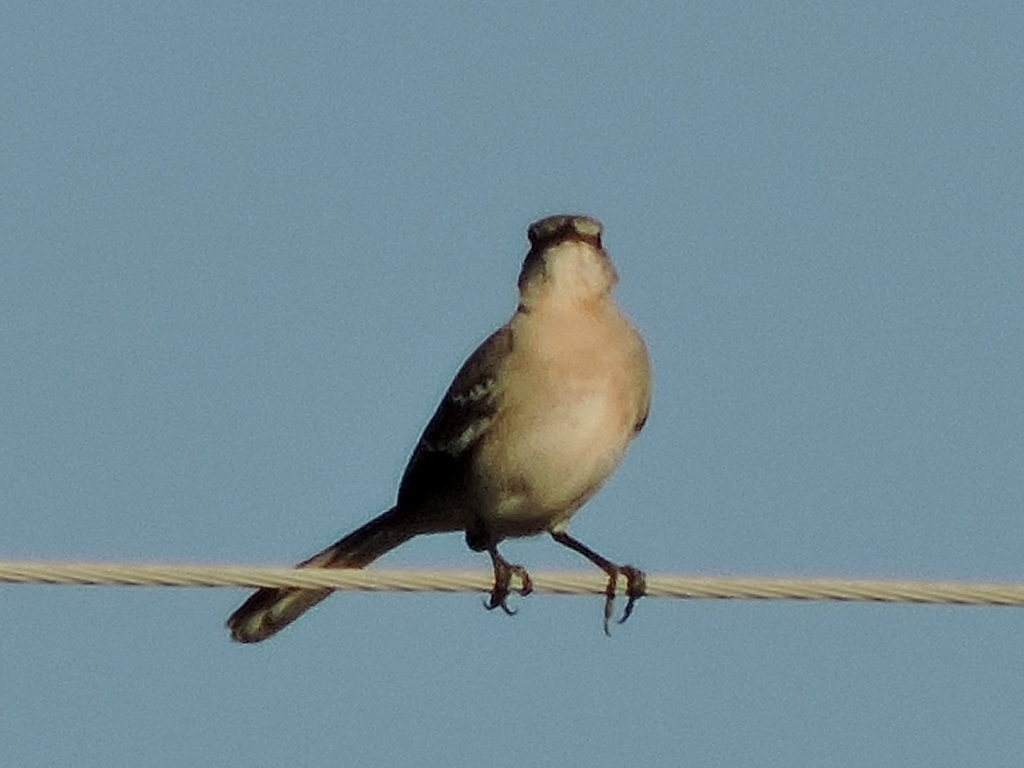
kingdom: Animalia
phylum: Chordata
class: Aves
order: Passeriformes
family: Mimidae
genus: Mimus
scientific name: Mimus polyglottos
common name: Northern mockingbird
